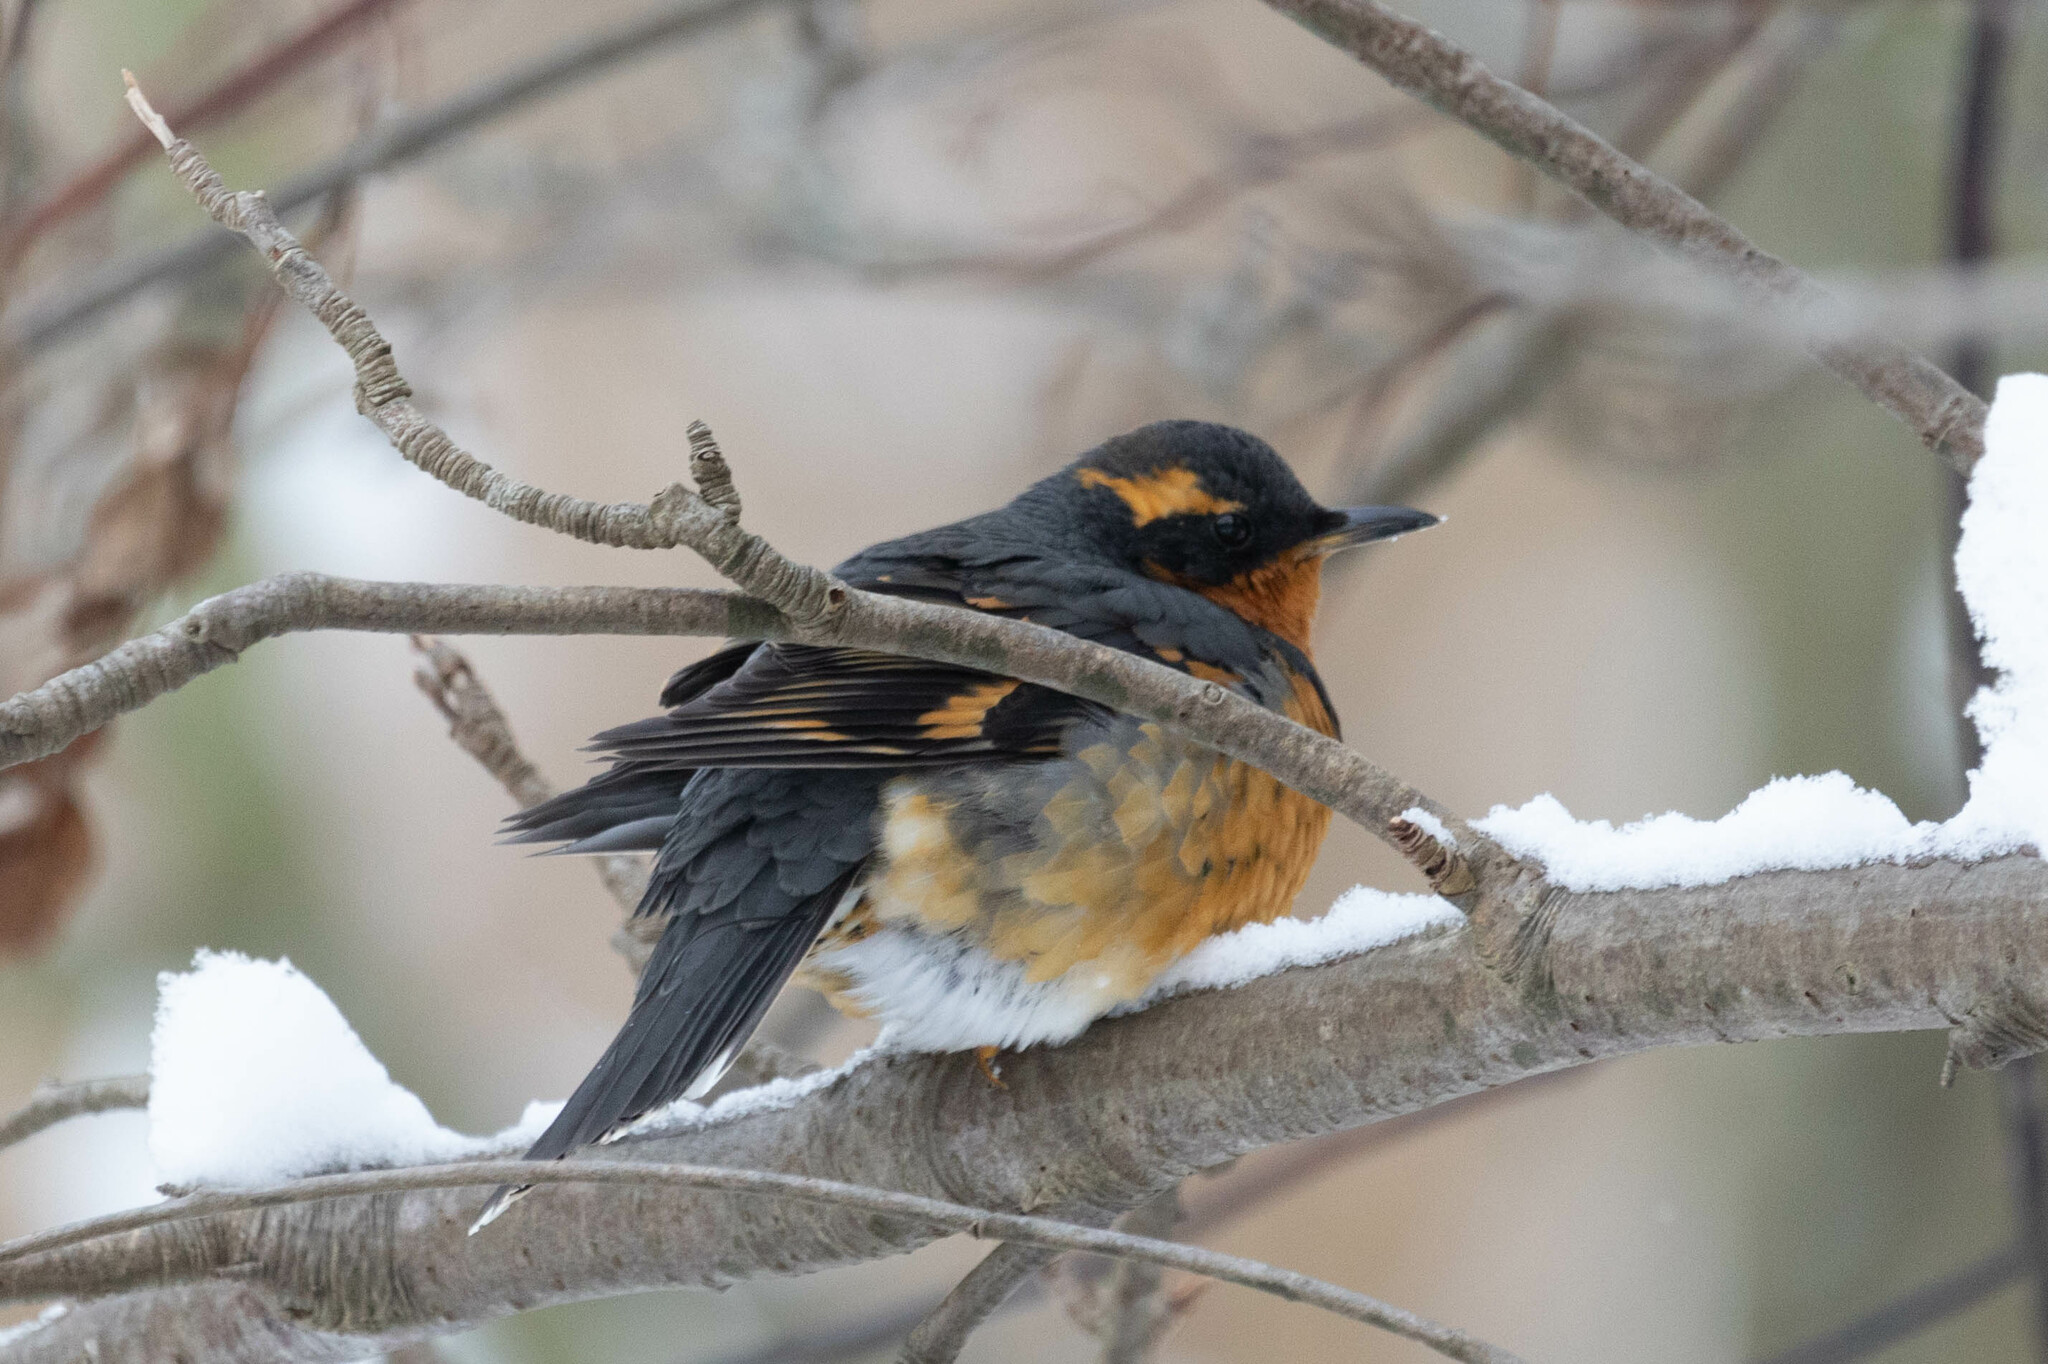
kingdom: Animalia
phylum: Chordata
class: Aves
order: Passeriformes
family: Turdidae
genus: Ixoreus
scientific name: Ixoreus naevius
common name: Varied thrush
